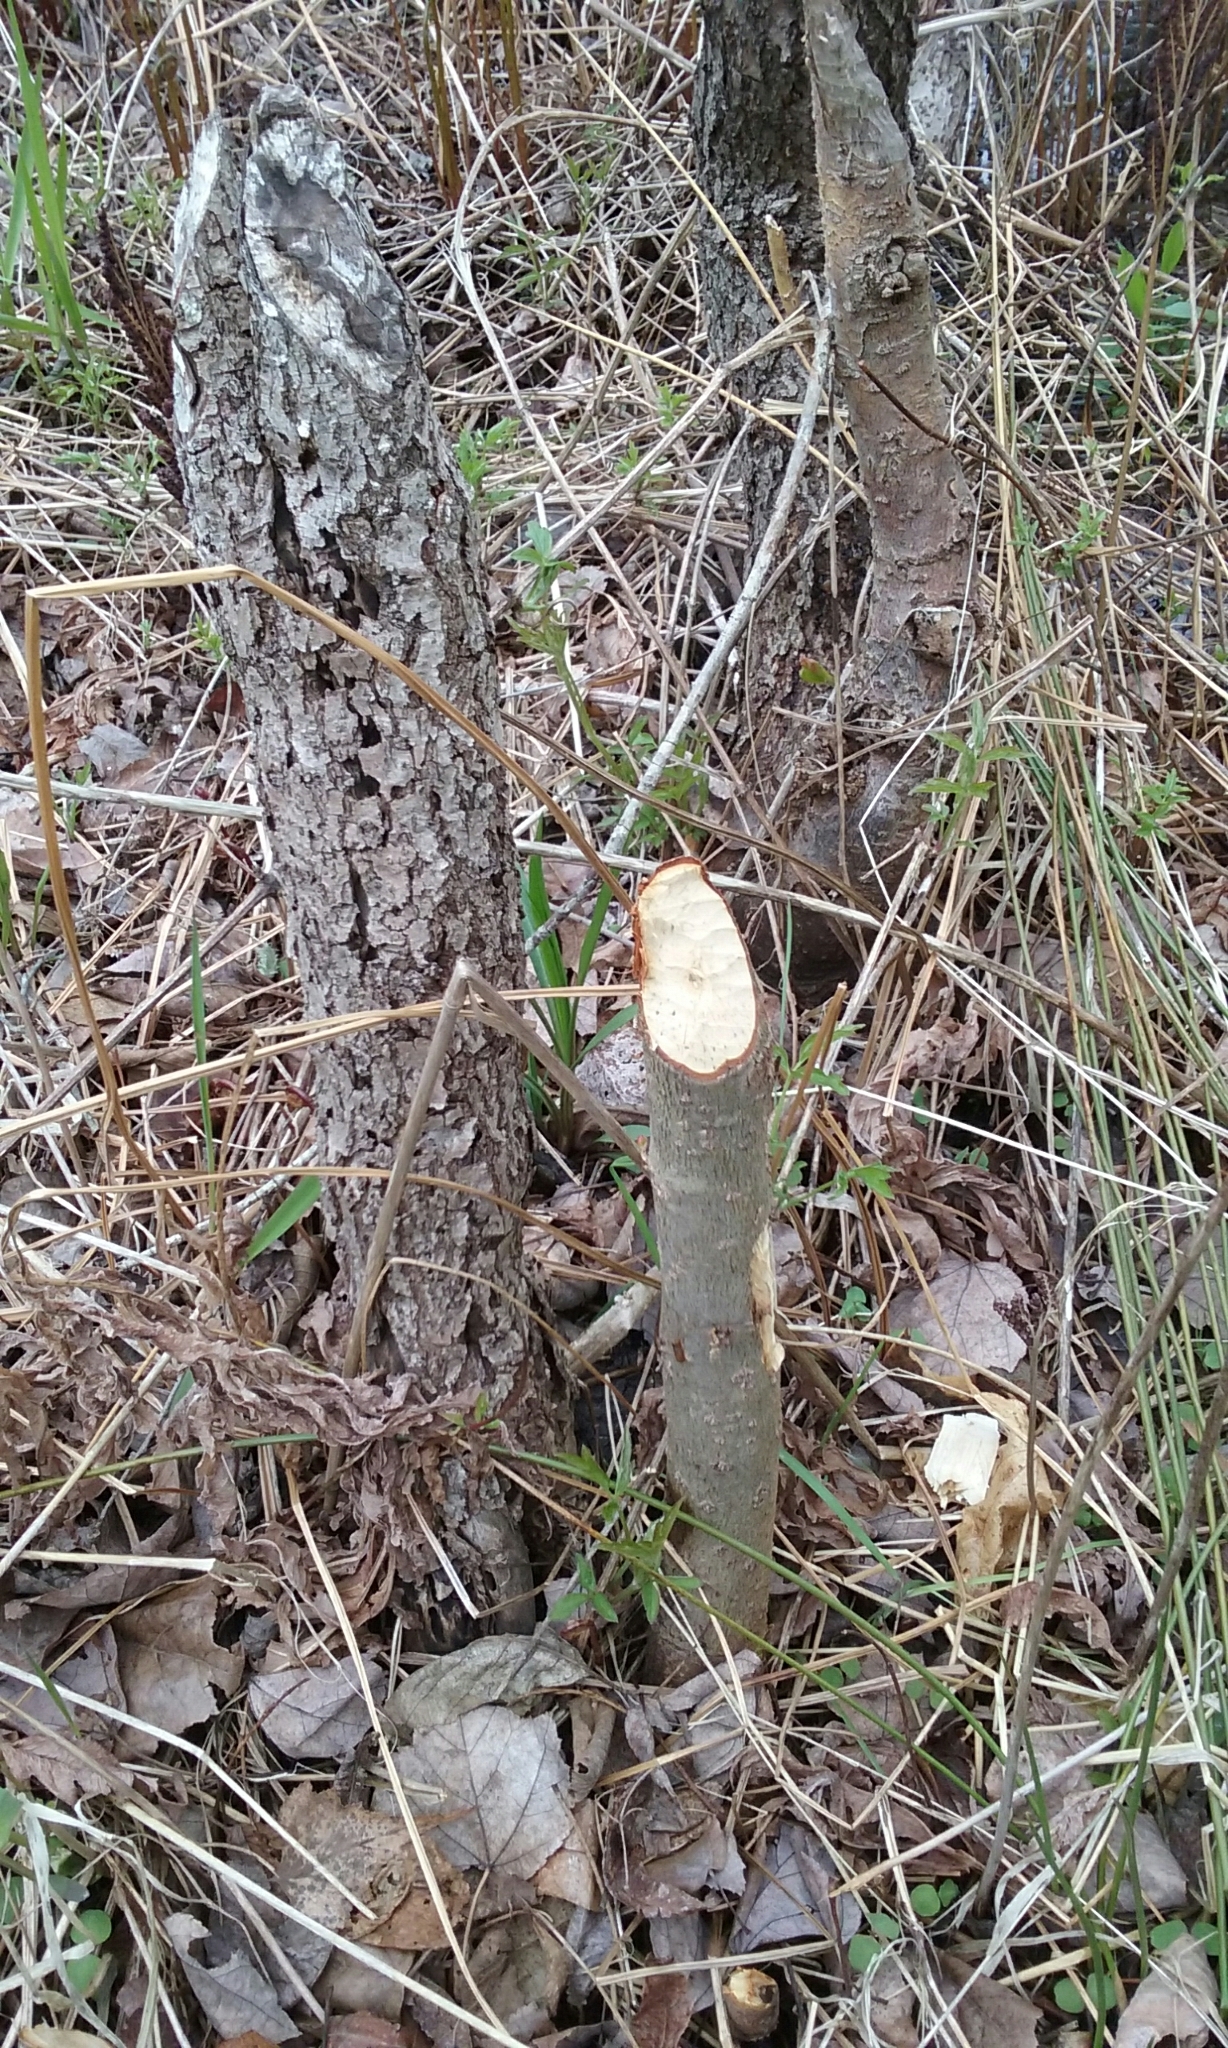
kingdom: Animalia
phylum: Chordata
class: Mammalia
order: Rodentia
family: Castoridae
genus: Castor
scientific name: Castor canadensis
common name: American beaver
